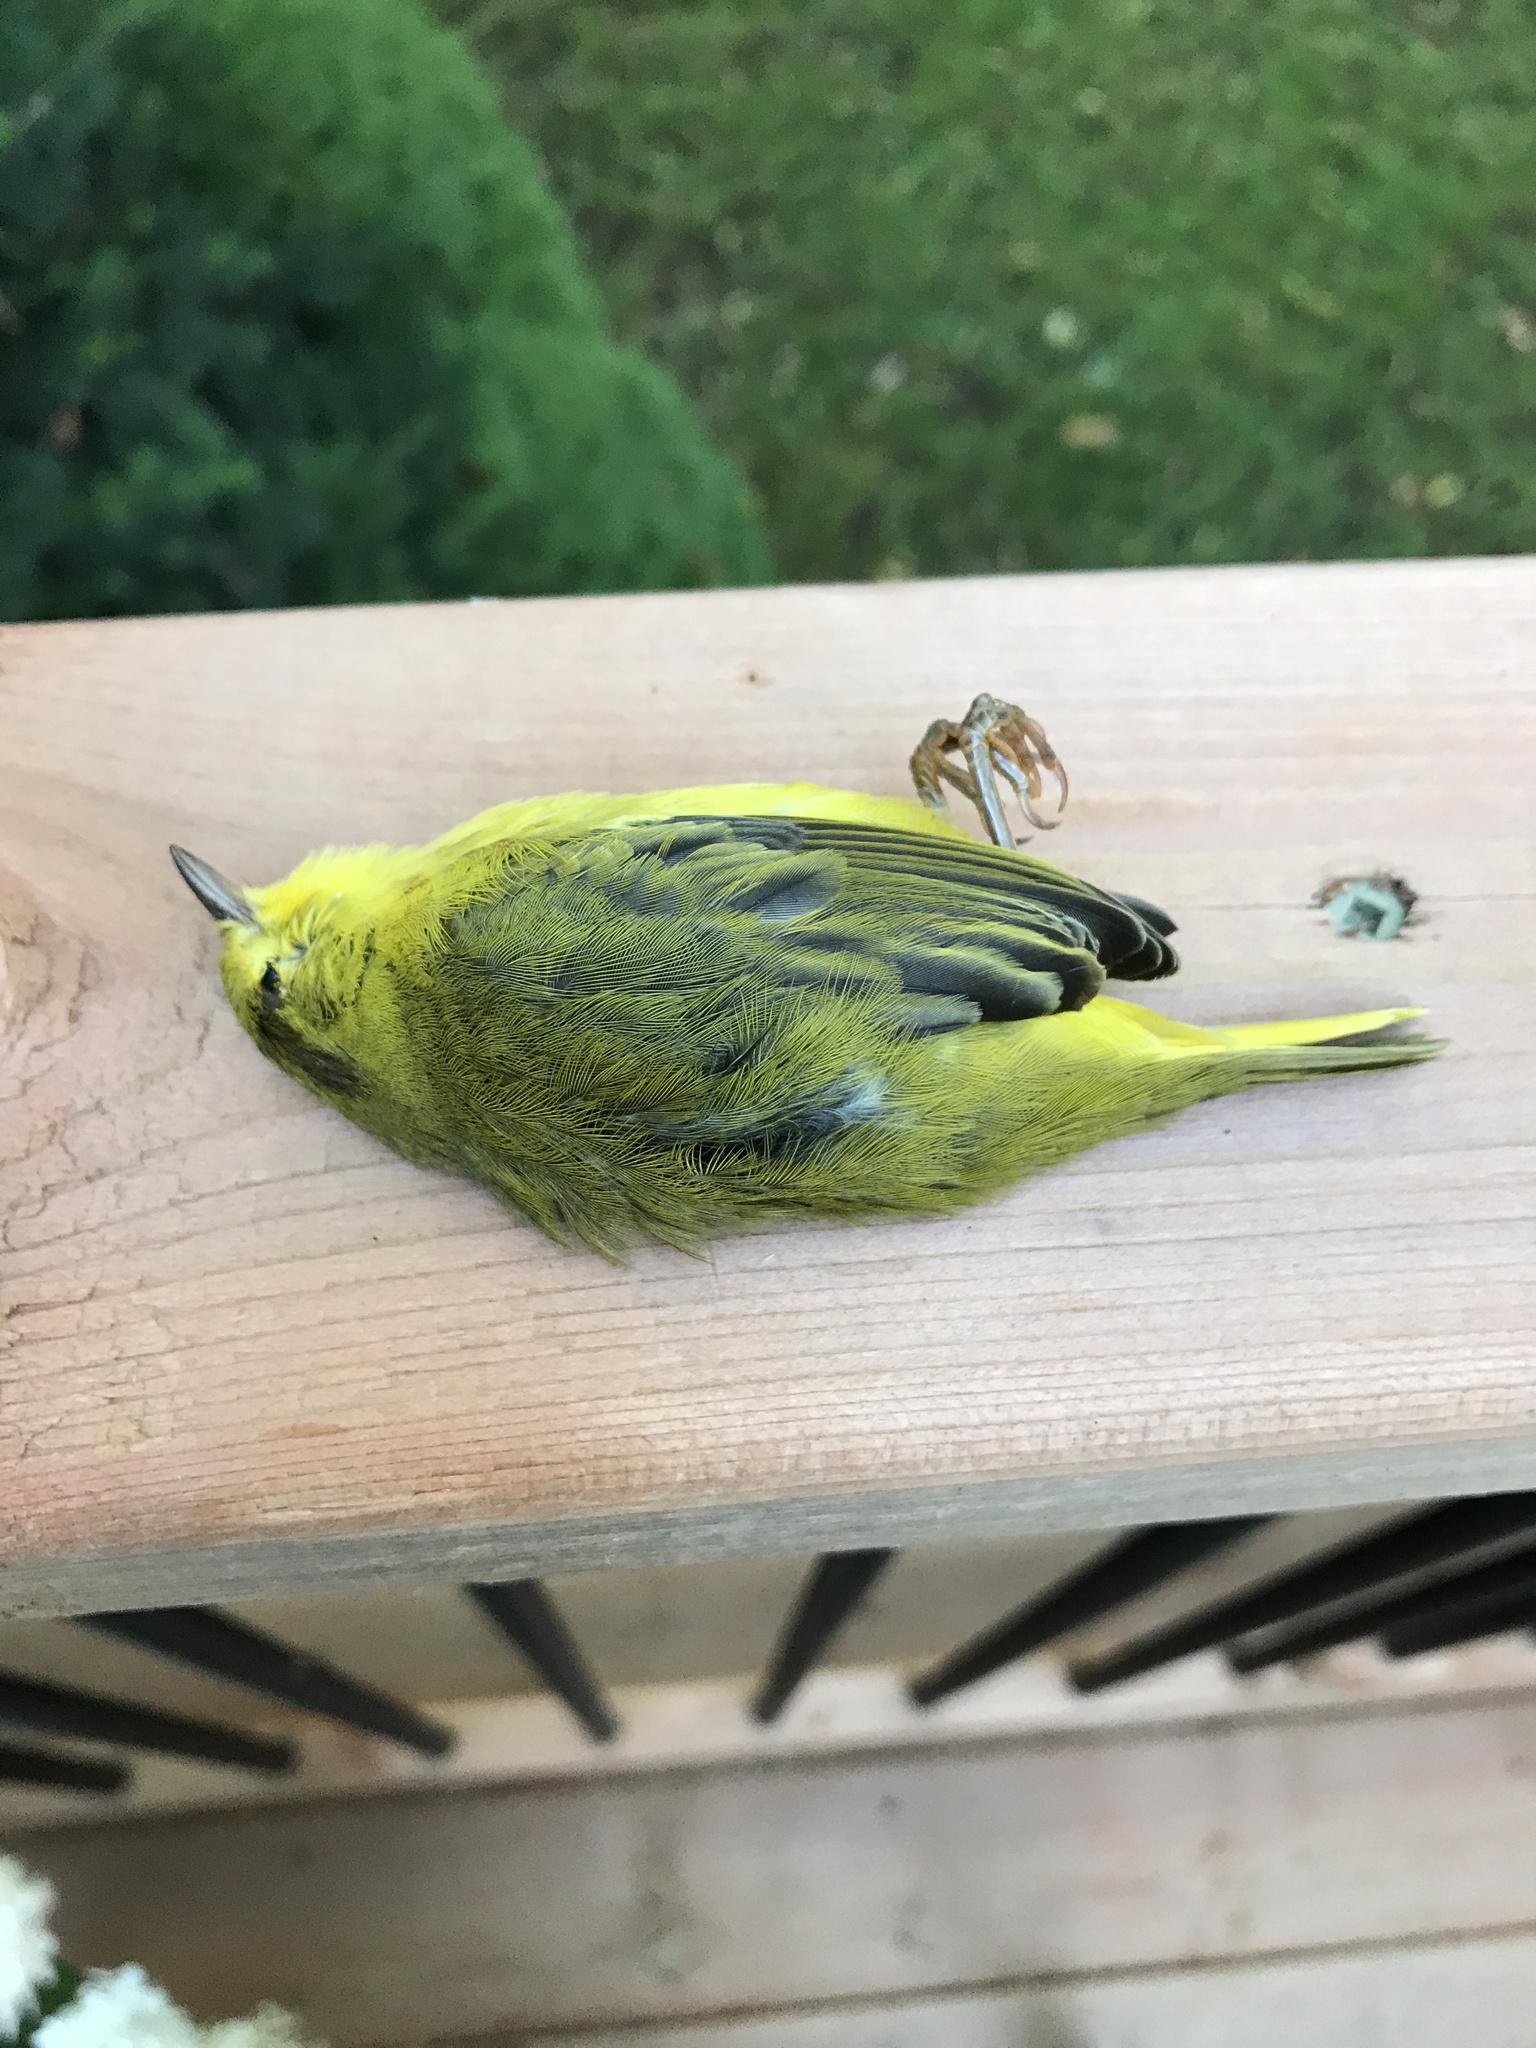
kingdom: Animalia
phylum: Chordata
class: Aves
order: Passeriformes
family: Parulidae
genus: Setophaga
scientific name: Setophaga petechia
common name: Yellow warbler
